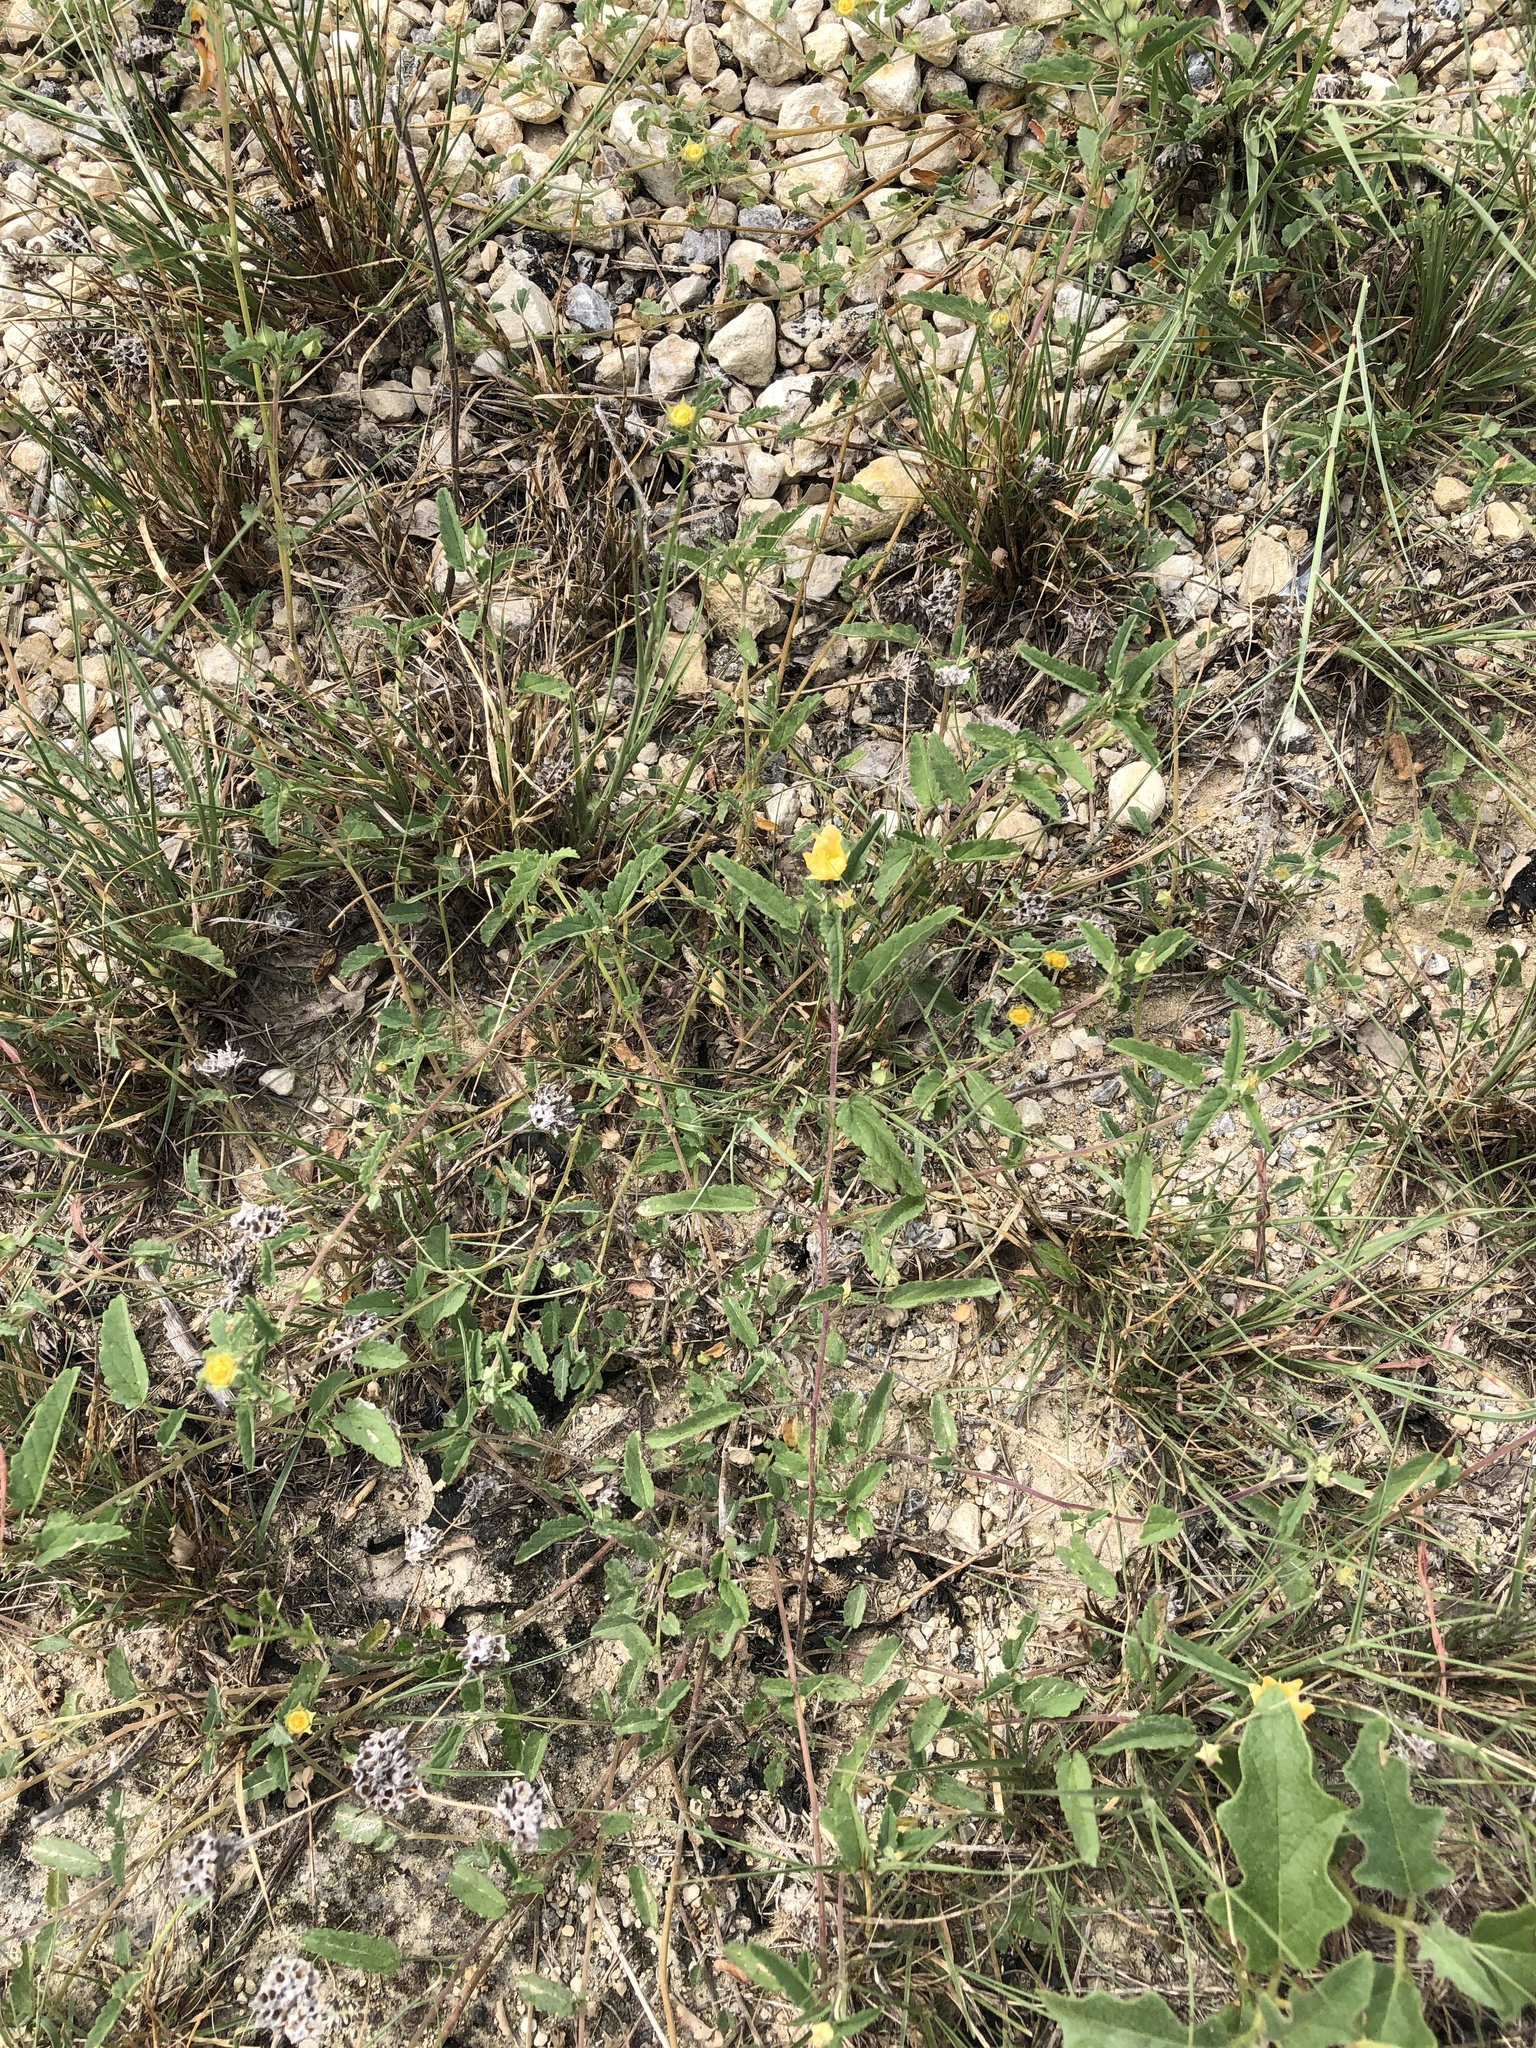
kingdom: Plantae
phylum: Tracheophyta
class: Magnoliopsida
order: Malvales
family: Malvaceae
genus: Sida
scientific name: Sida abutilifolia
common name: Spreading fanpetals
